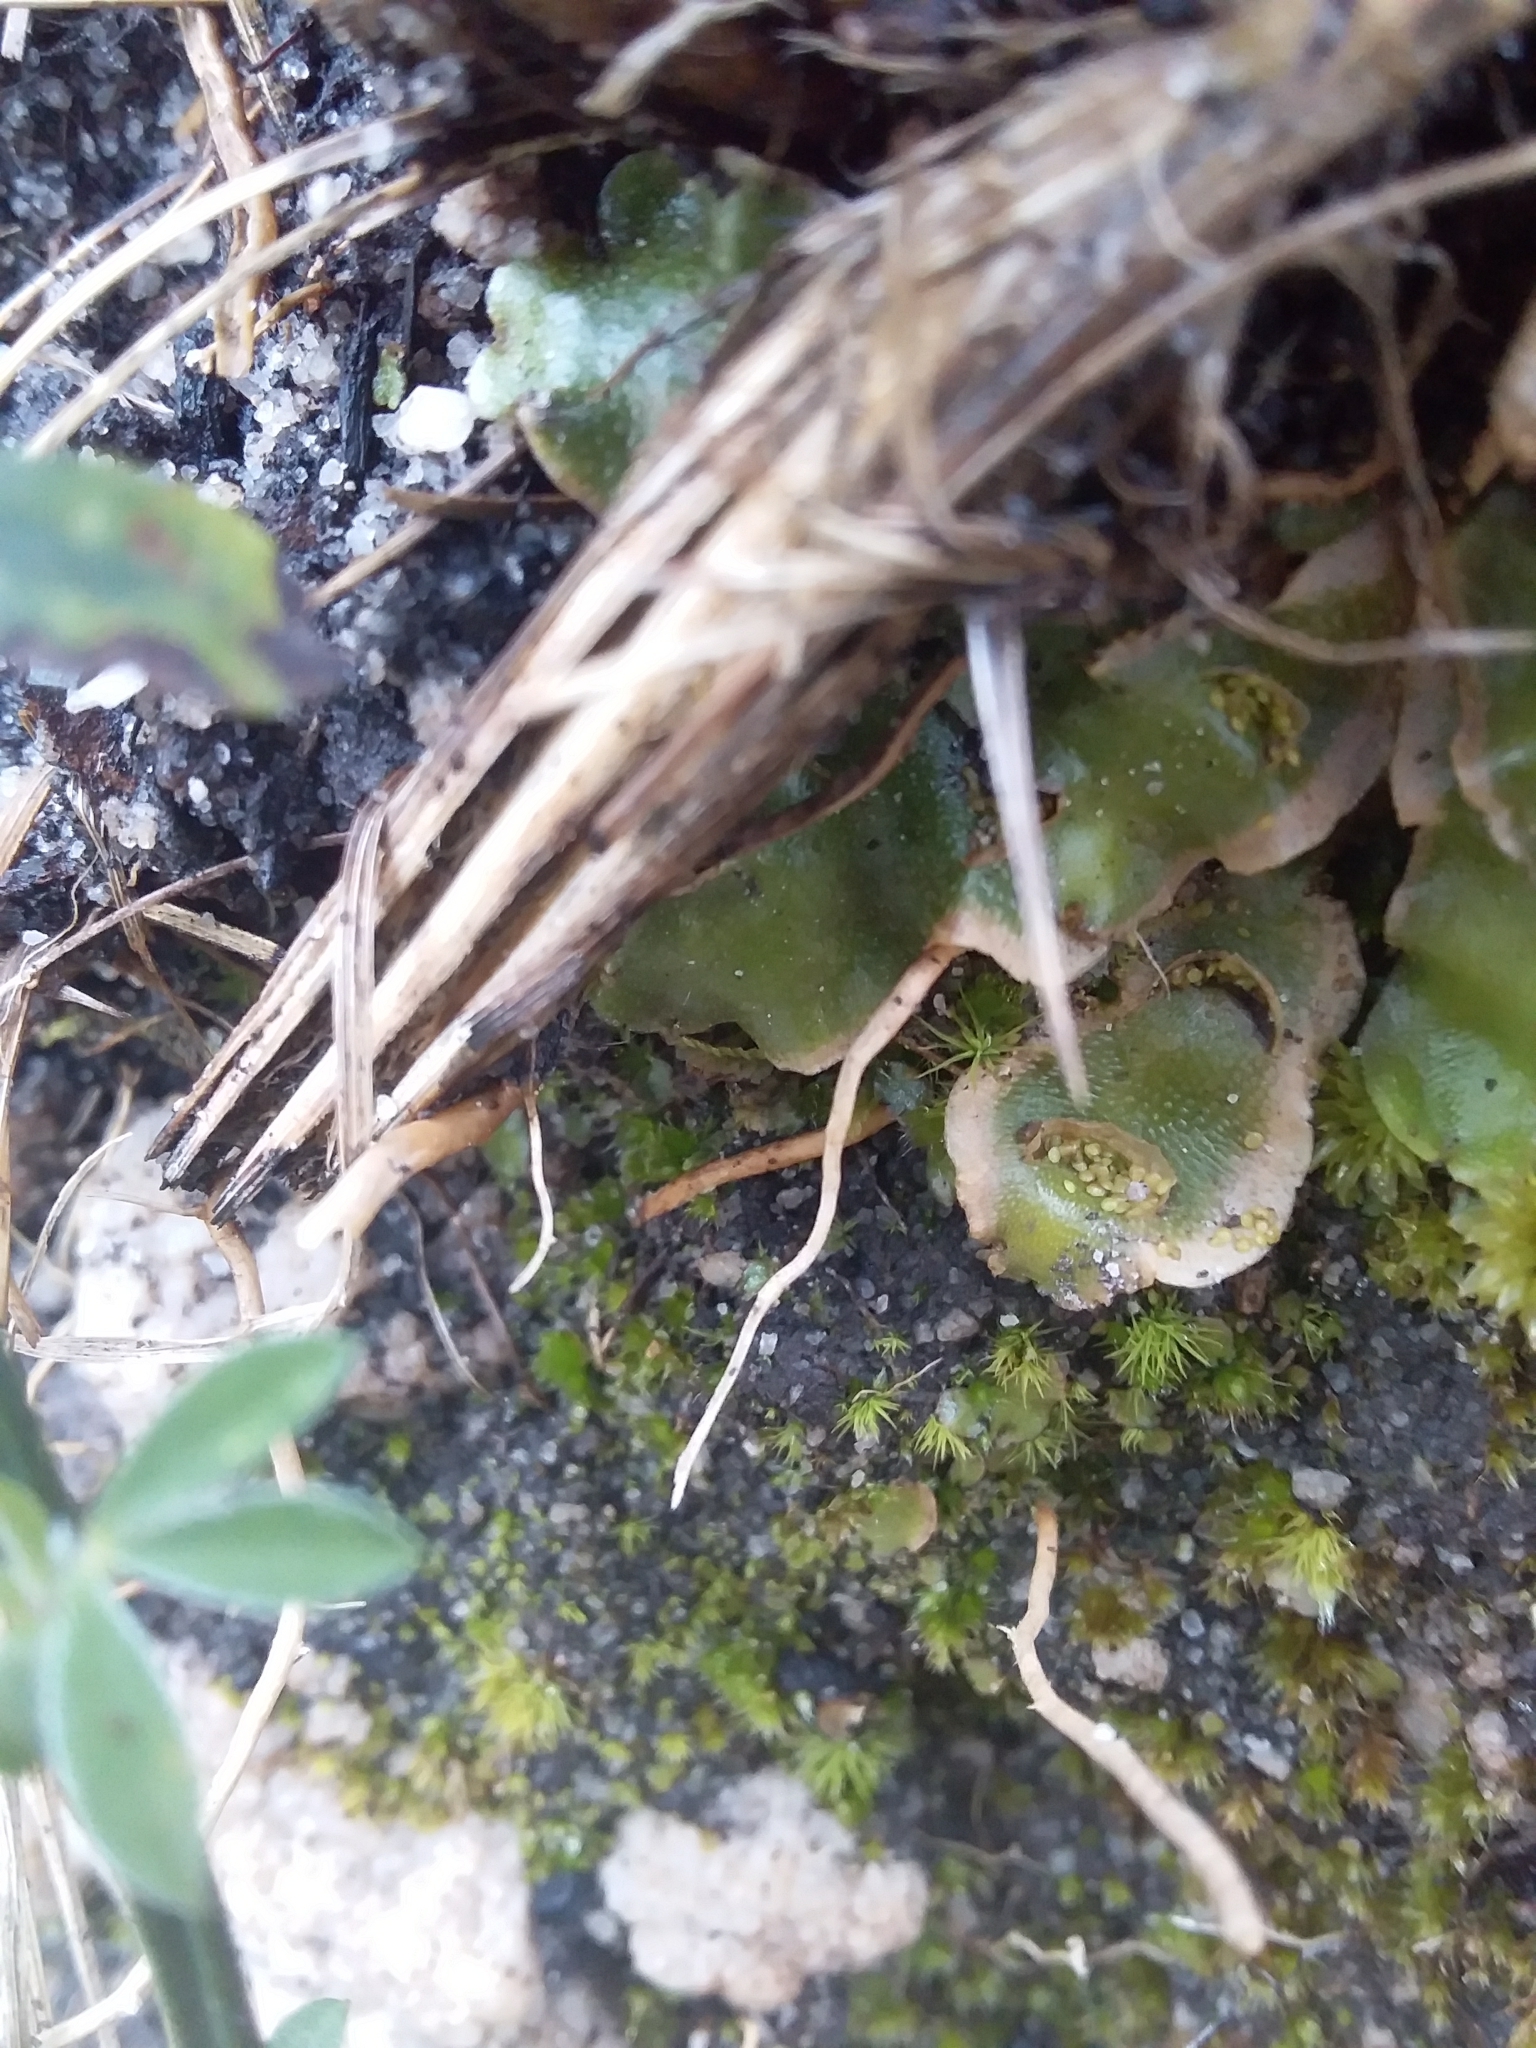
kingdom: Plantae
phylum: Marchantiophyta
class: Marchantiopsida
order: Lunulariales
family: Lunulariaceae
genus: Lunularia
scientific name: Lunularia cruciata
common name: Crescent-cup liverwort
